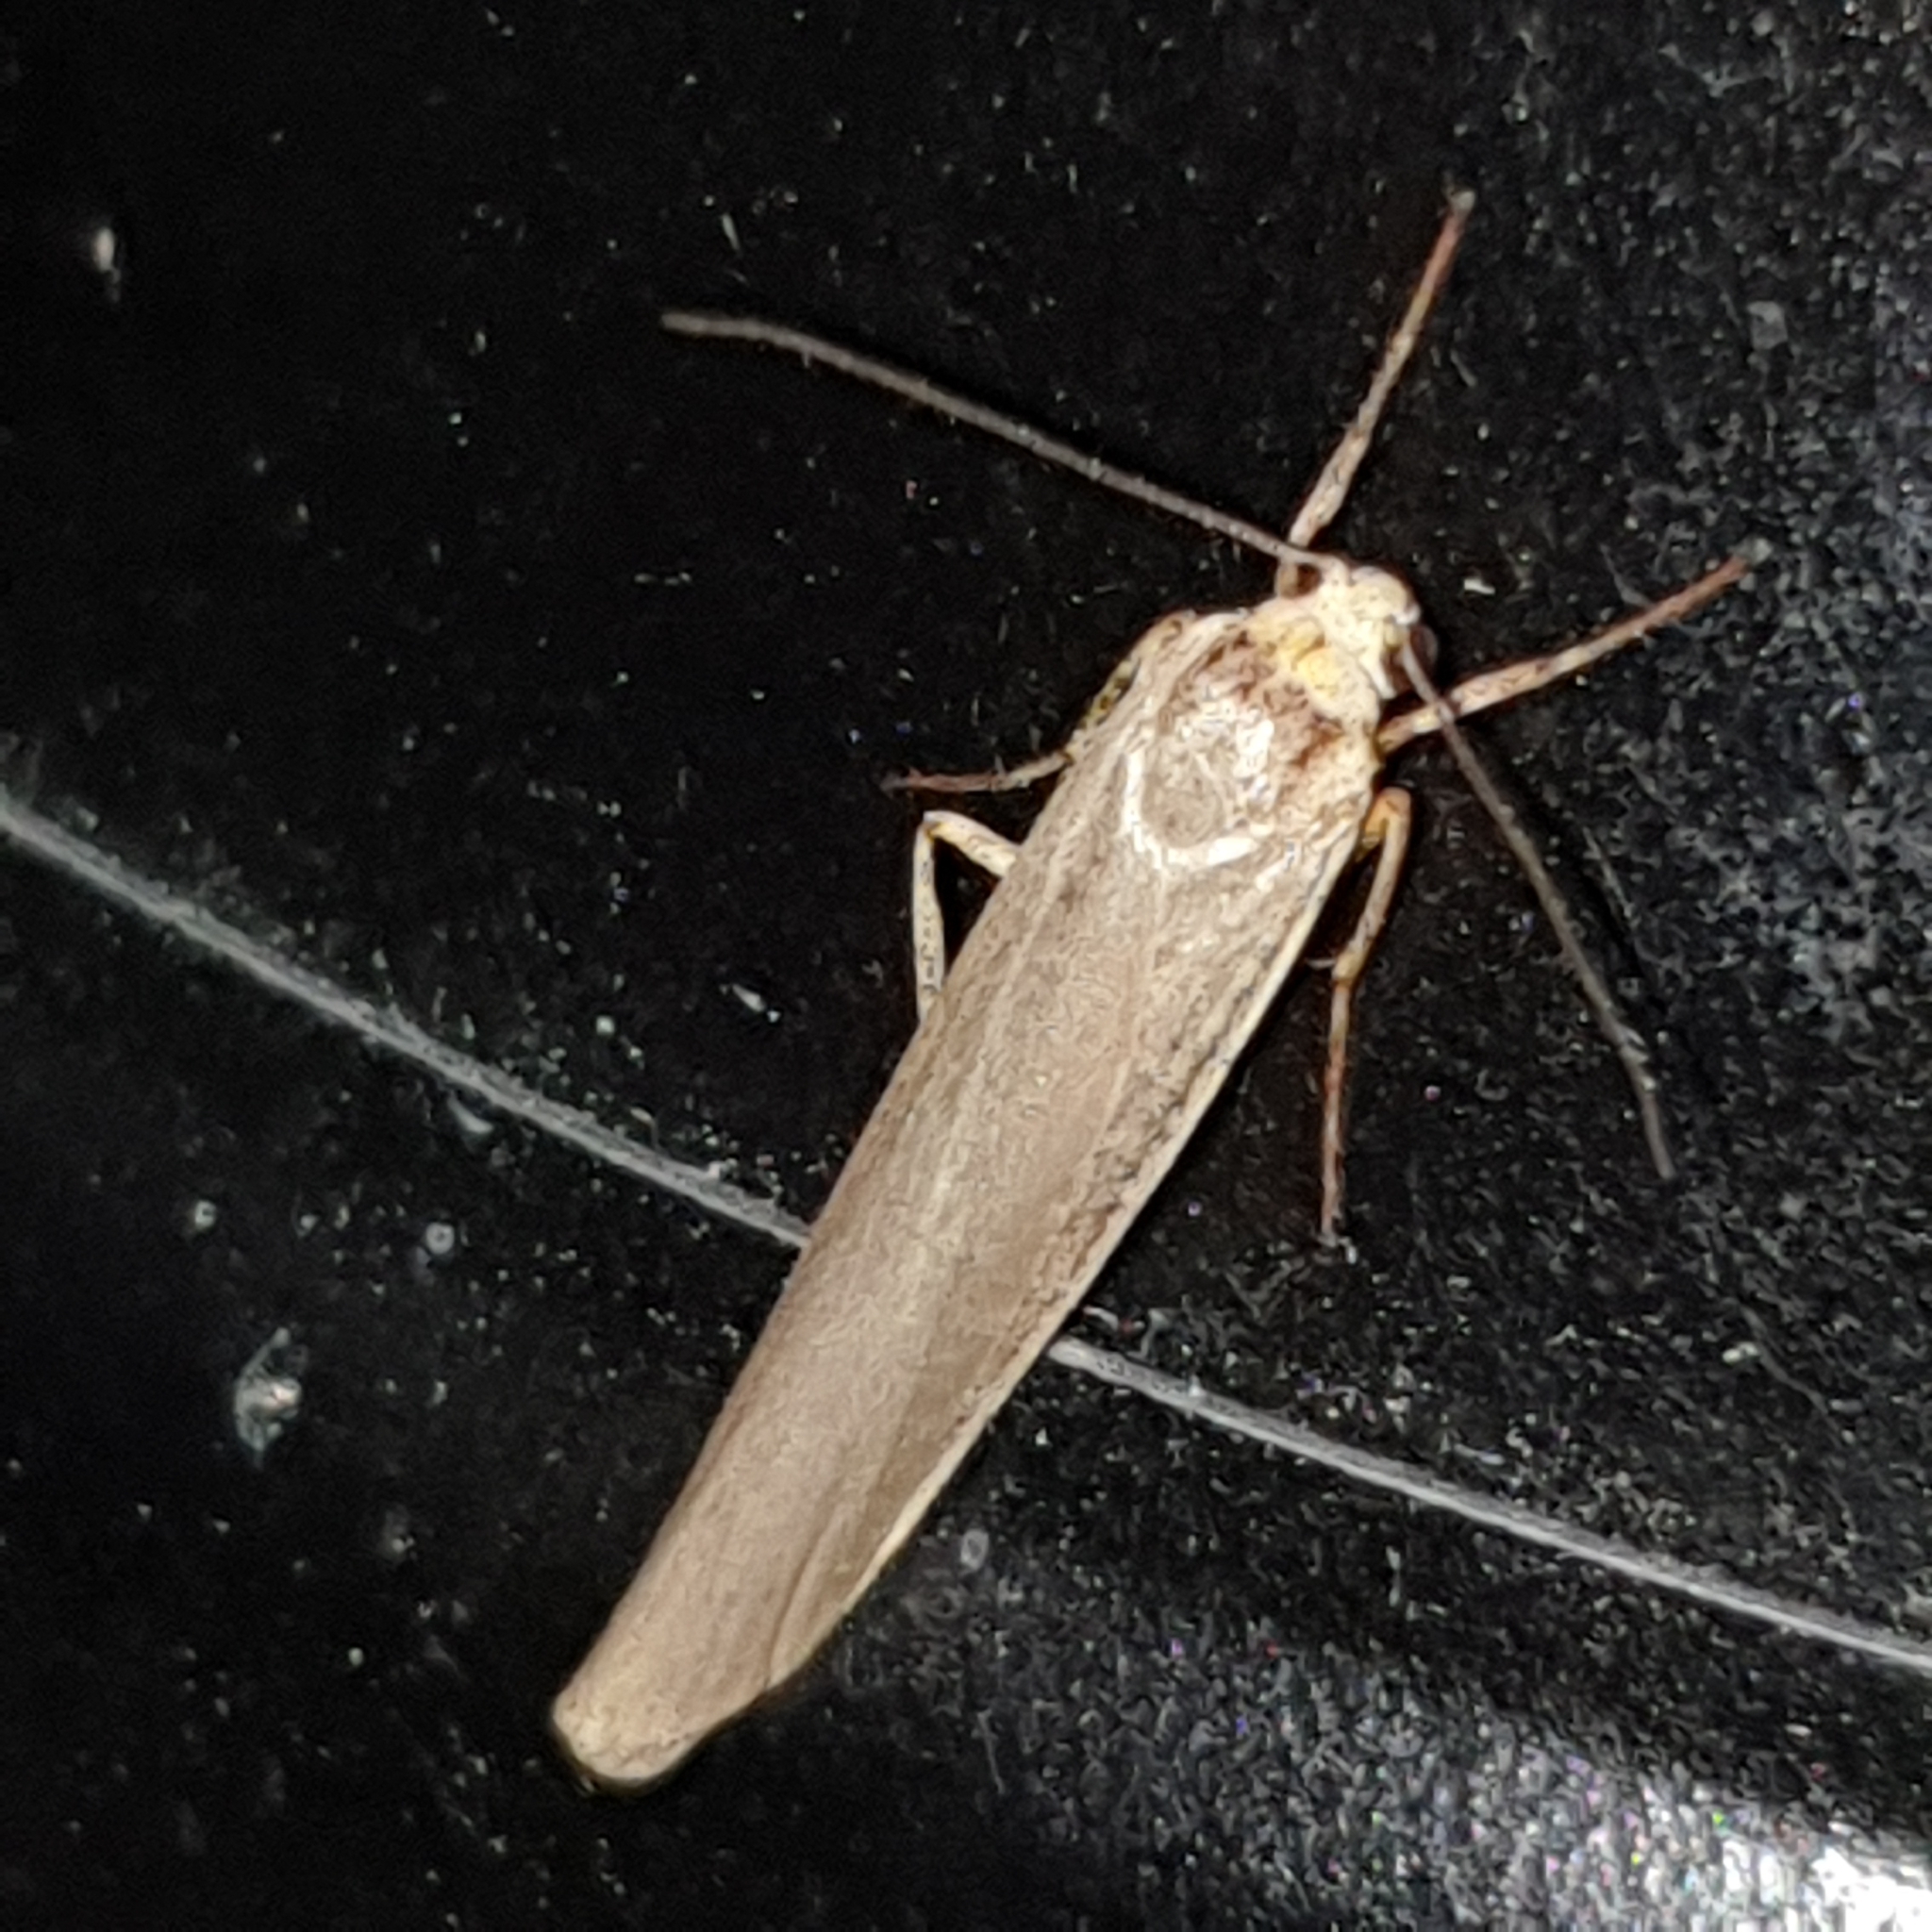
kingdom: Animalia
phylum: Arthropoda
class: Insecta
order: Lepidoptera
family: Erebidae
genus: Manulea
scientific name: Manulea complana
